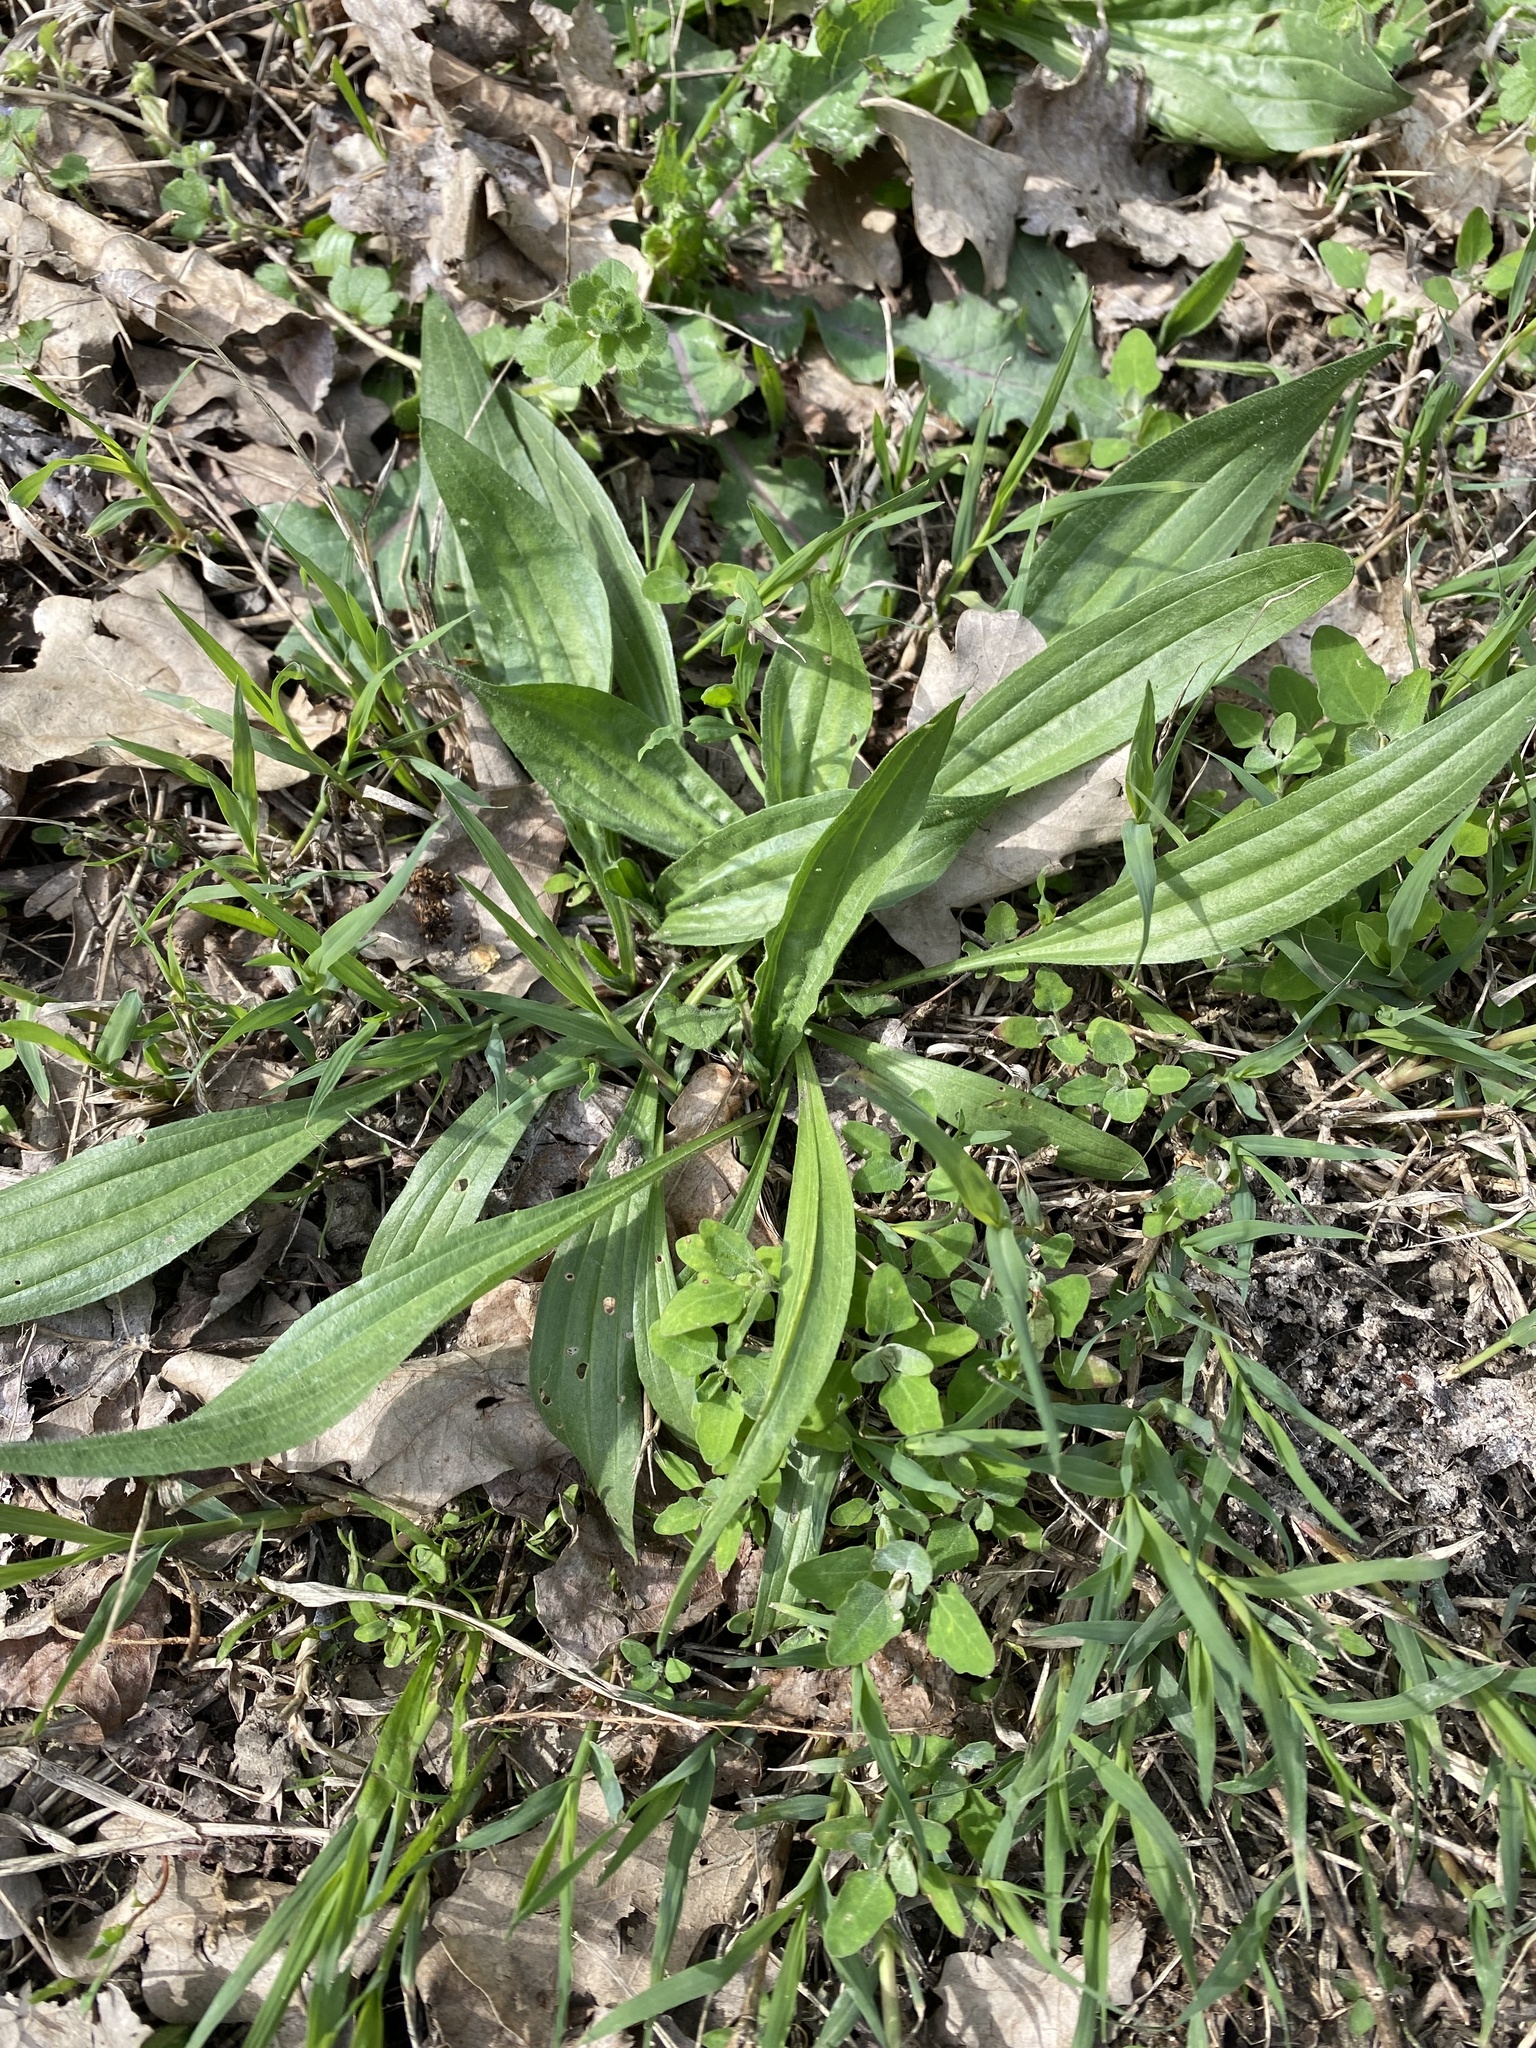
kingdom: Plantae
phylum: Tracheophyta
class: Magnoliopsida
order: Lamiales
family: Plantaginaceae
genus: Plantago
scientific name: Plantago lanceolata
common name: Ribwort plantain
